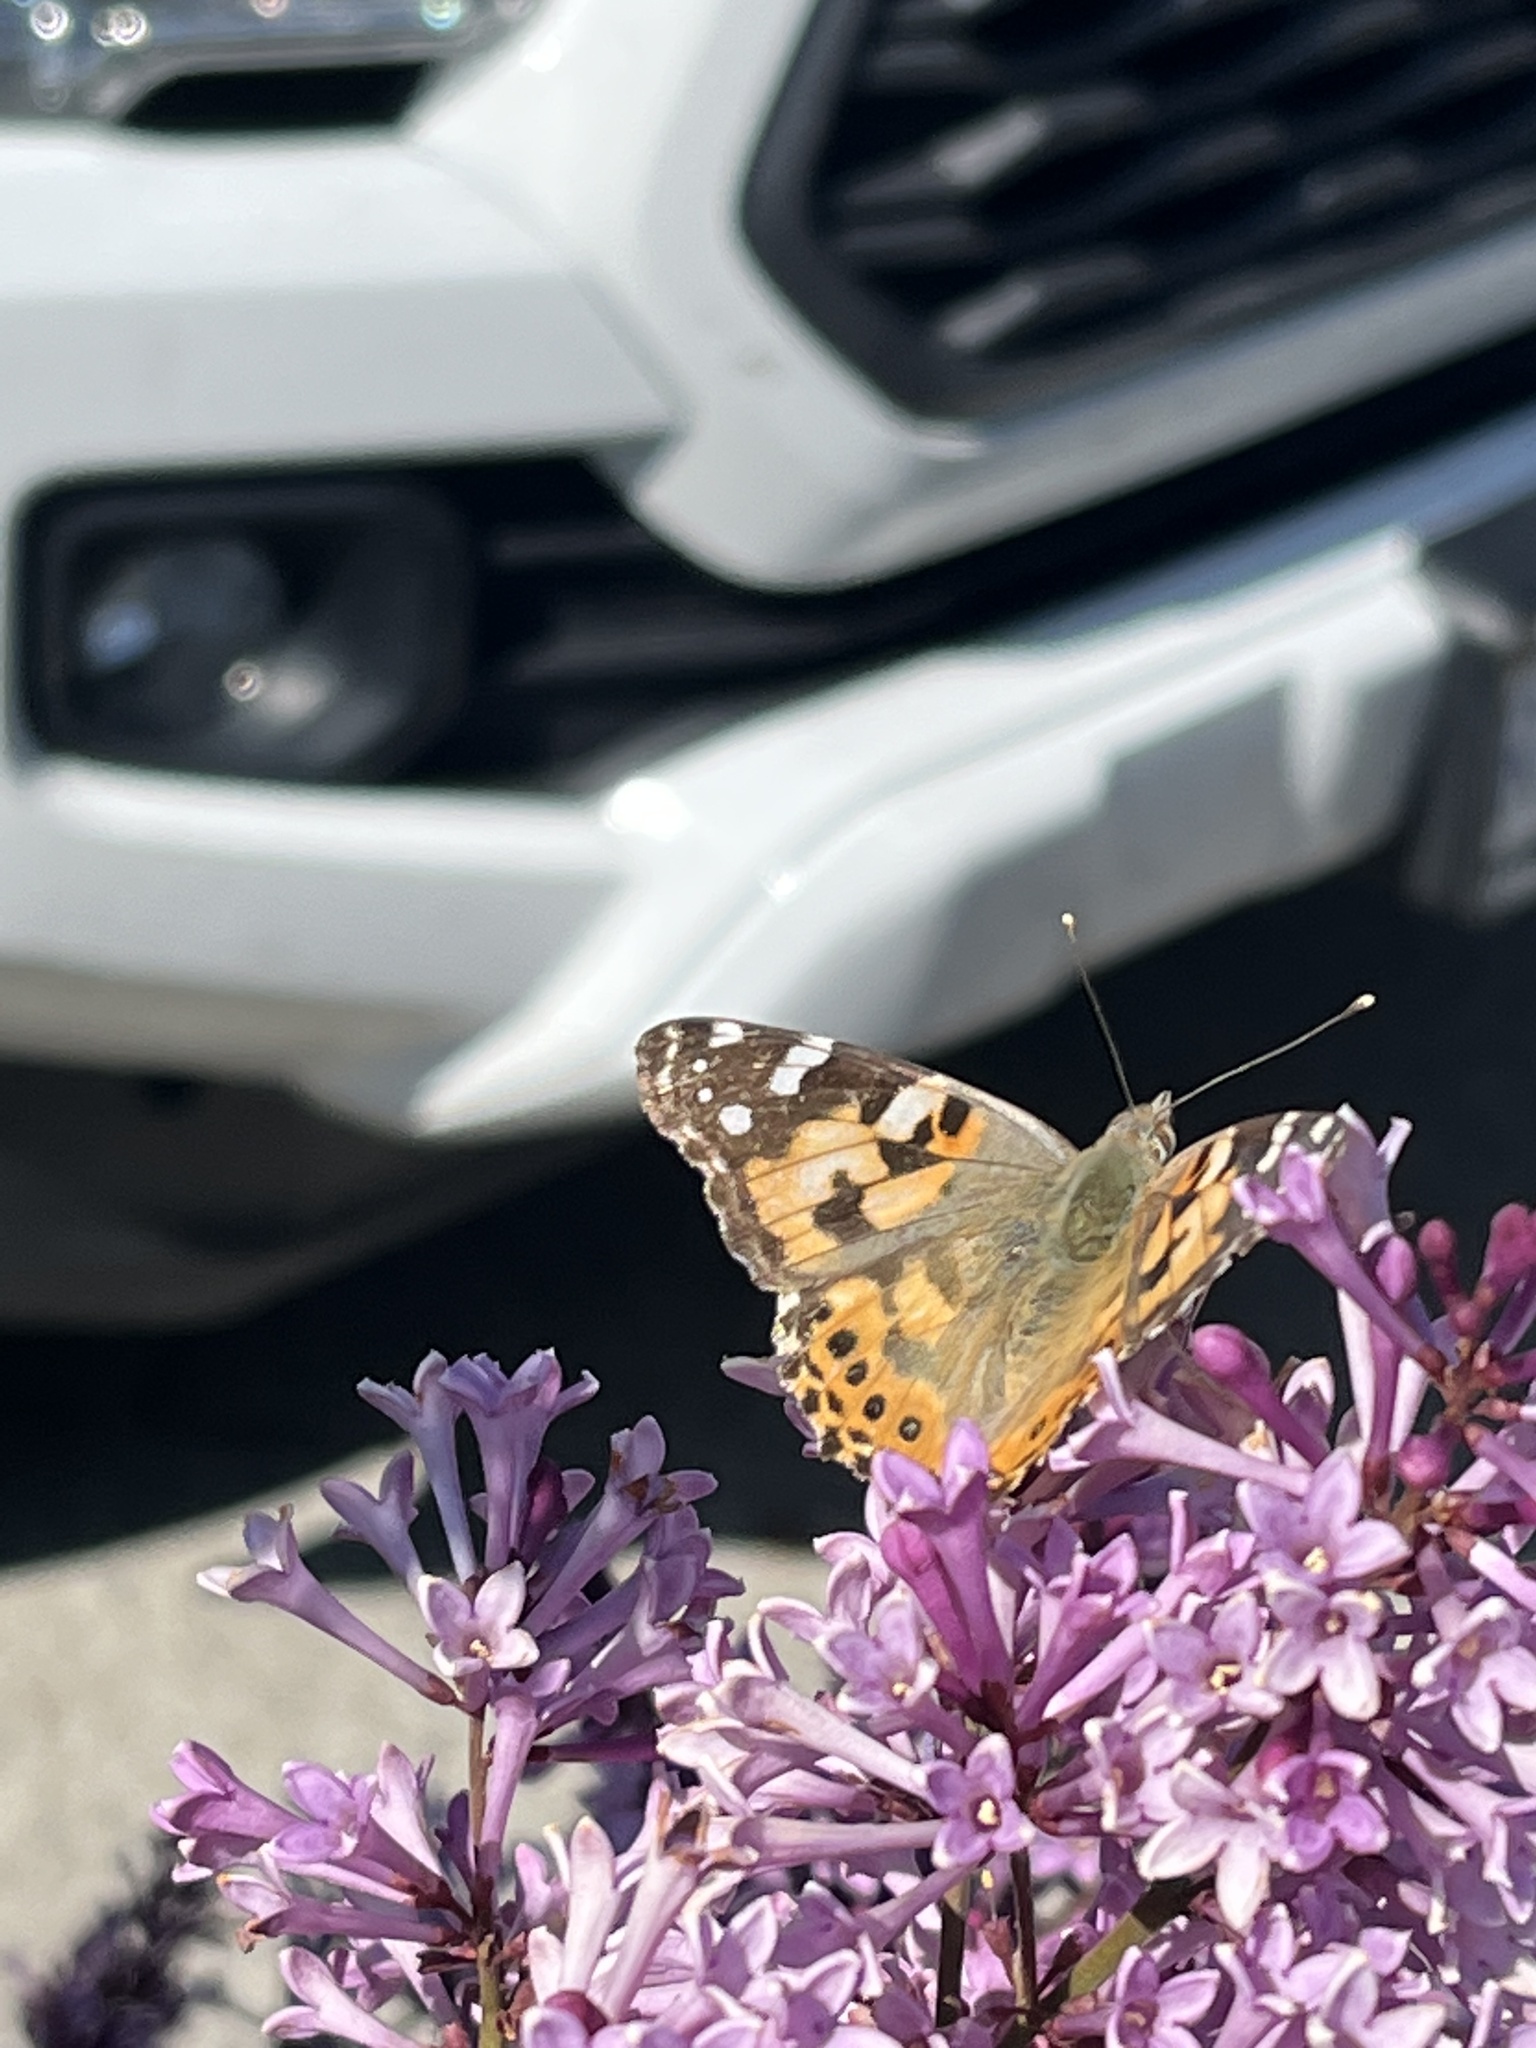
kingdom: Animalia
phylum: Arthropoda
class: Insecta
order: Lepidoptera
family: Nymphalidae
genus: Vanessa
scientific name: Vanessa cardui
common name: Painted lady
